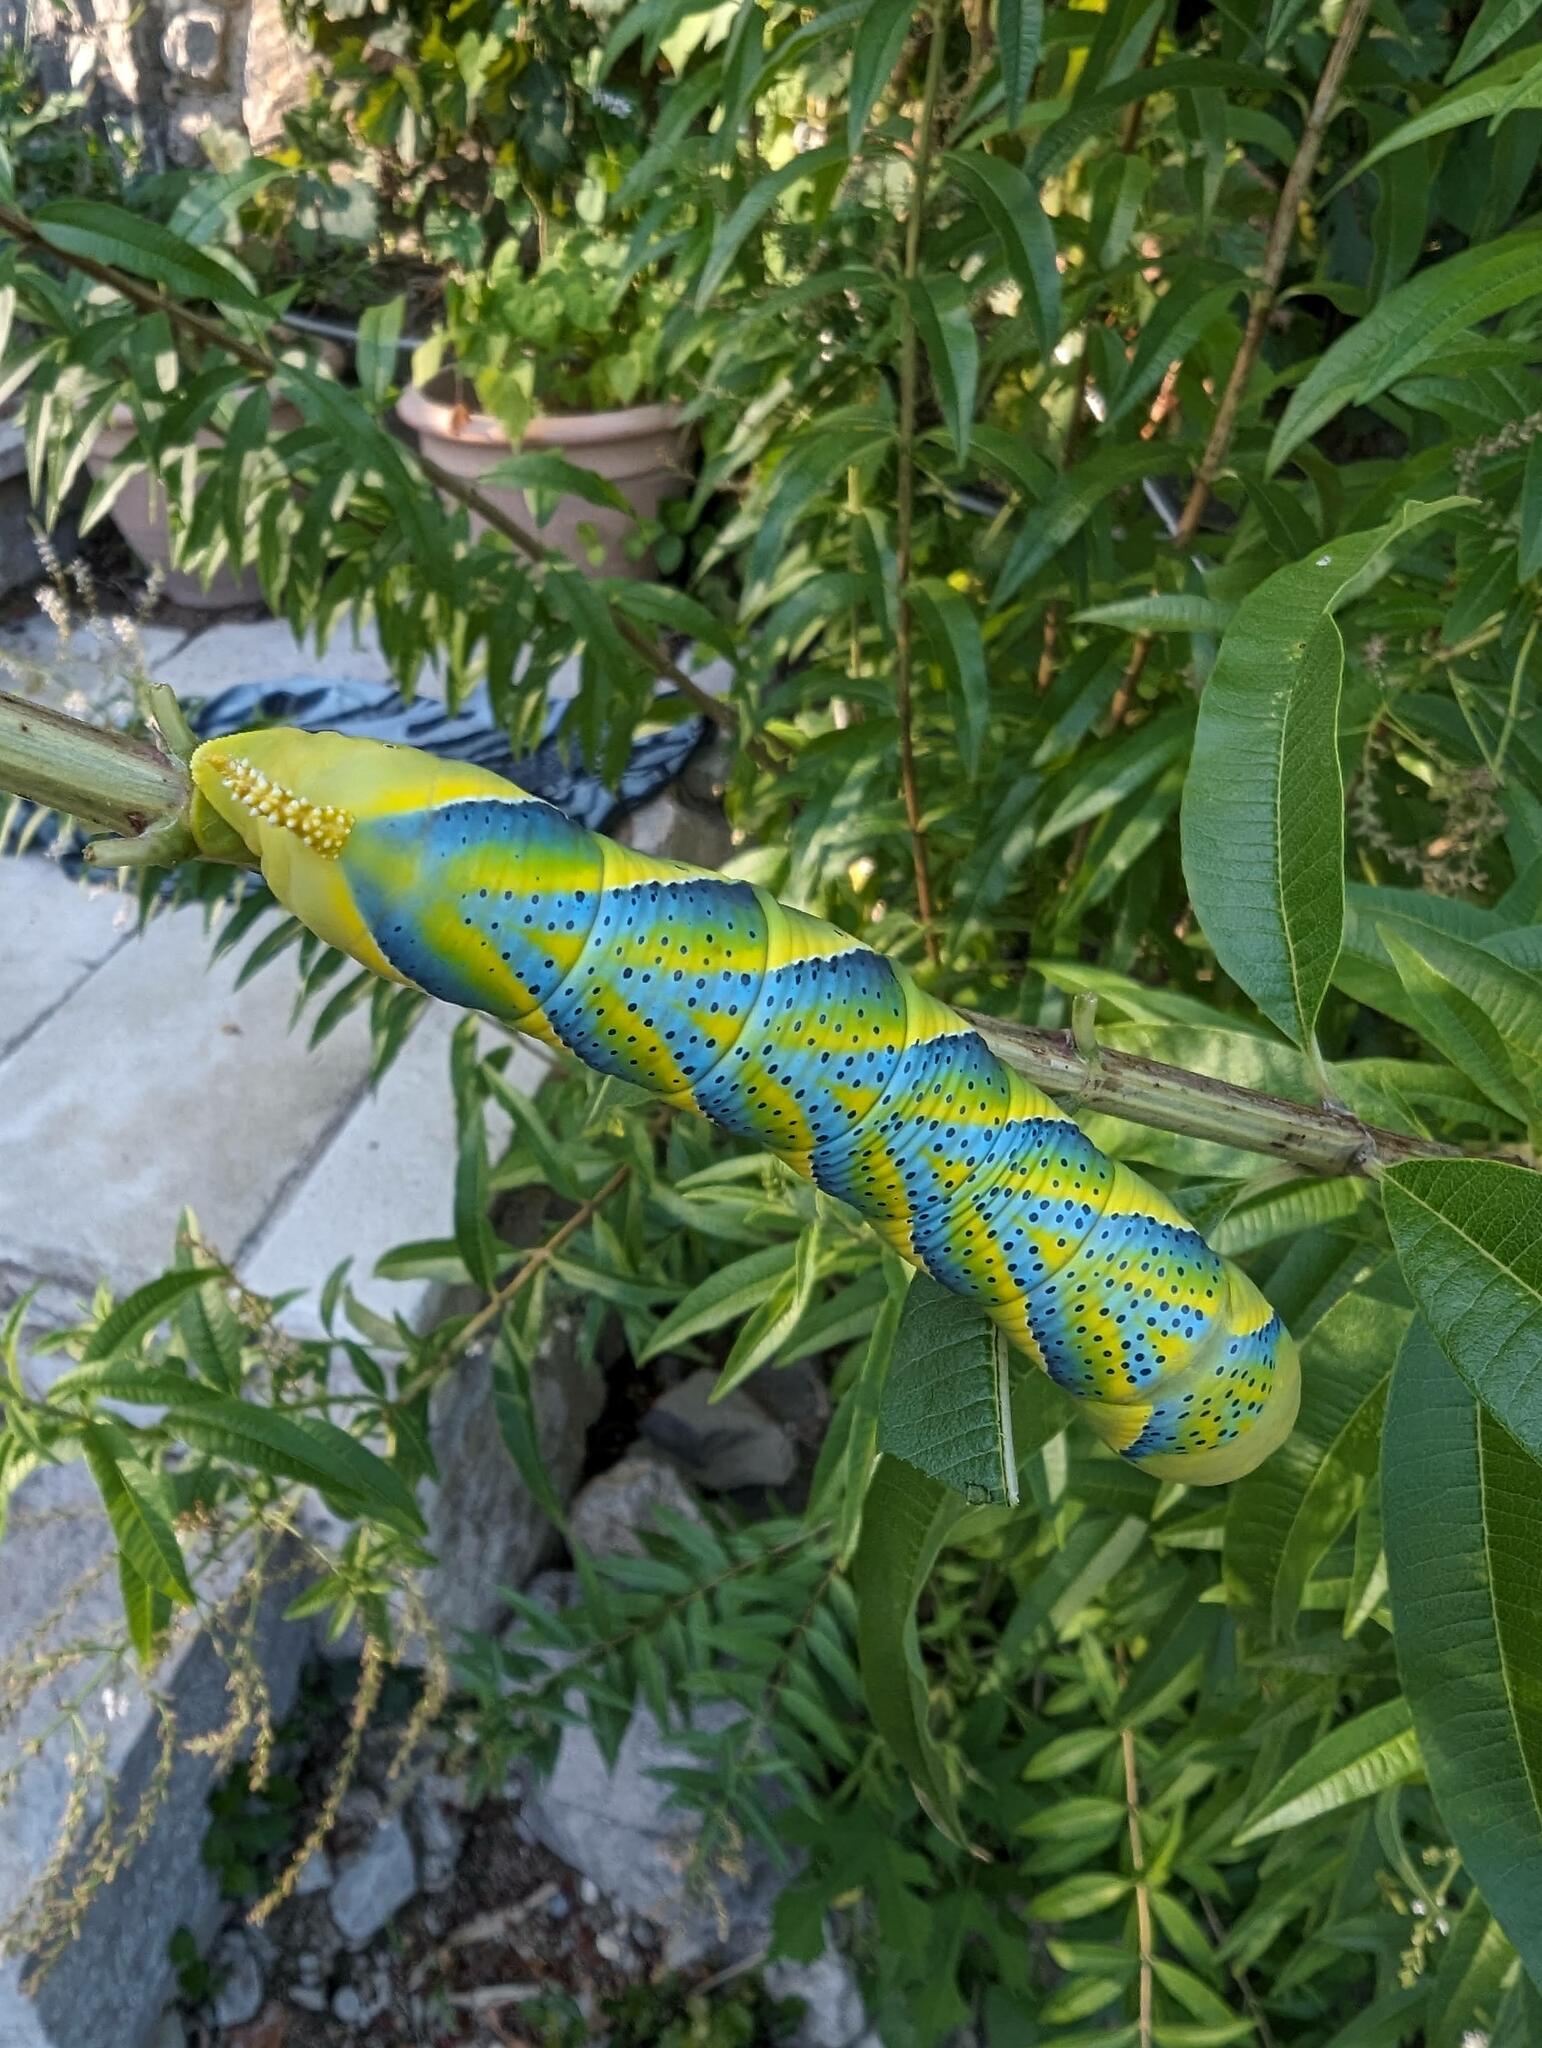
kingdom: Animalia
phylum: Arthropoda
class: Insecta
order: Lepidoptera
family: Sphingidae
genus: Acherontia
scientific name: Acherontia atropos
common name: Death's-head hawk moth
